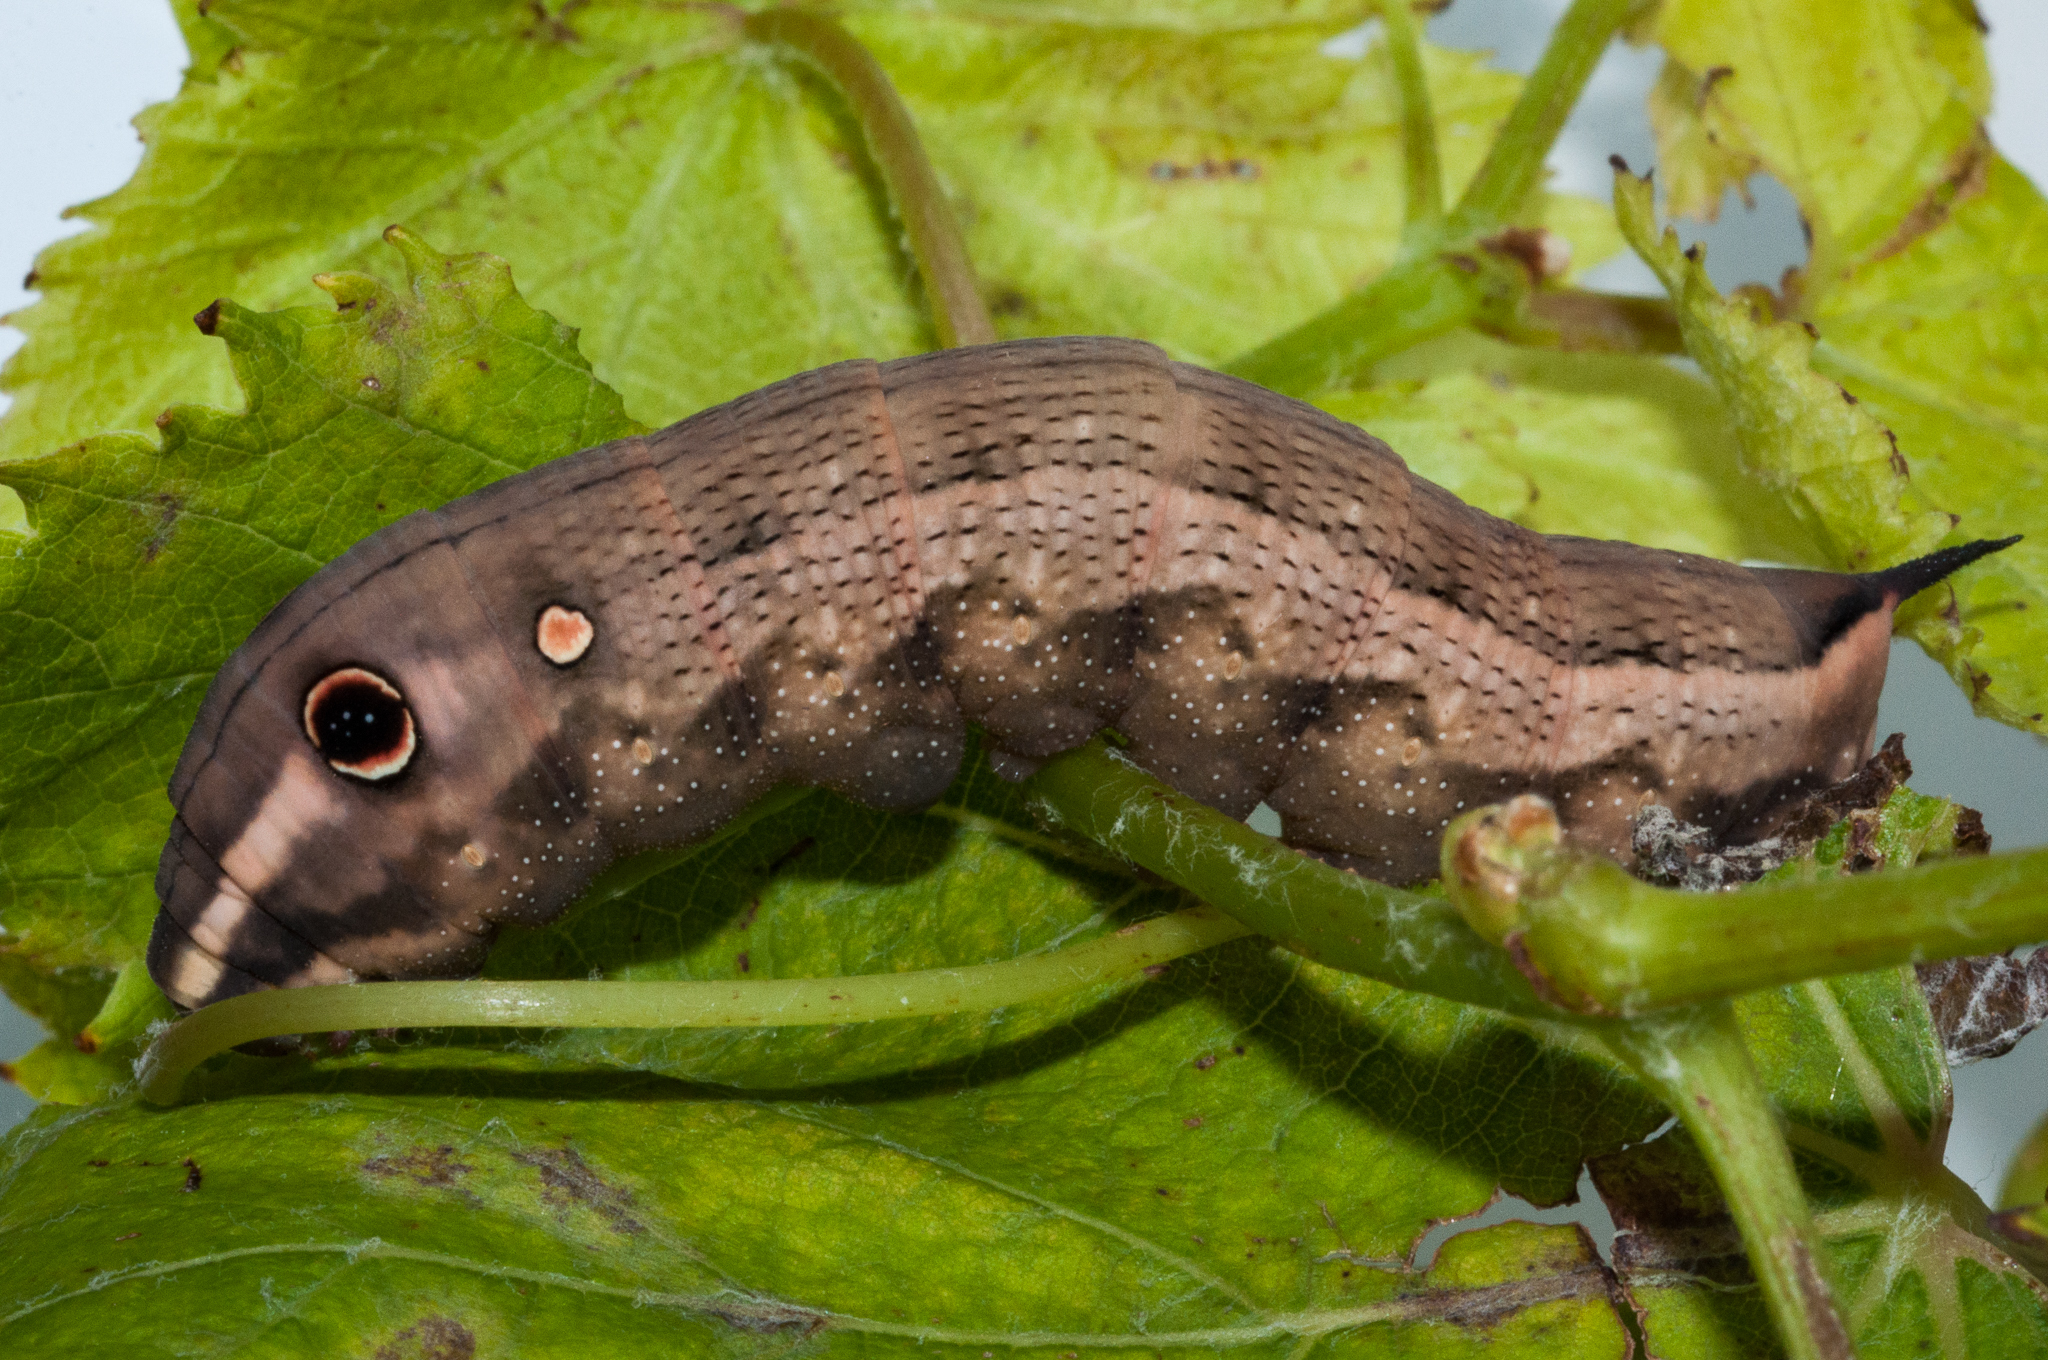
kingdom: Animalia
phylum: Arthropoda
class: Insecta
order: Lepidoptera
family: Sphingidae
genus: Hippotion
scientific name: Hippotion celerio
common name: Silver-striped hawk-moth
